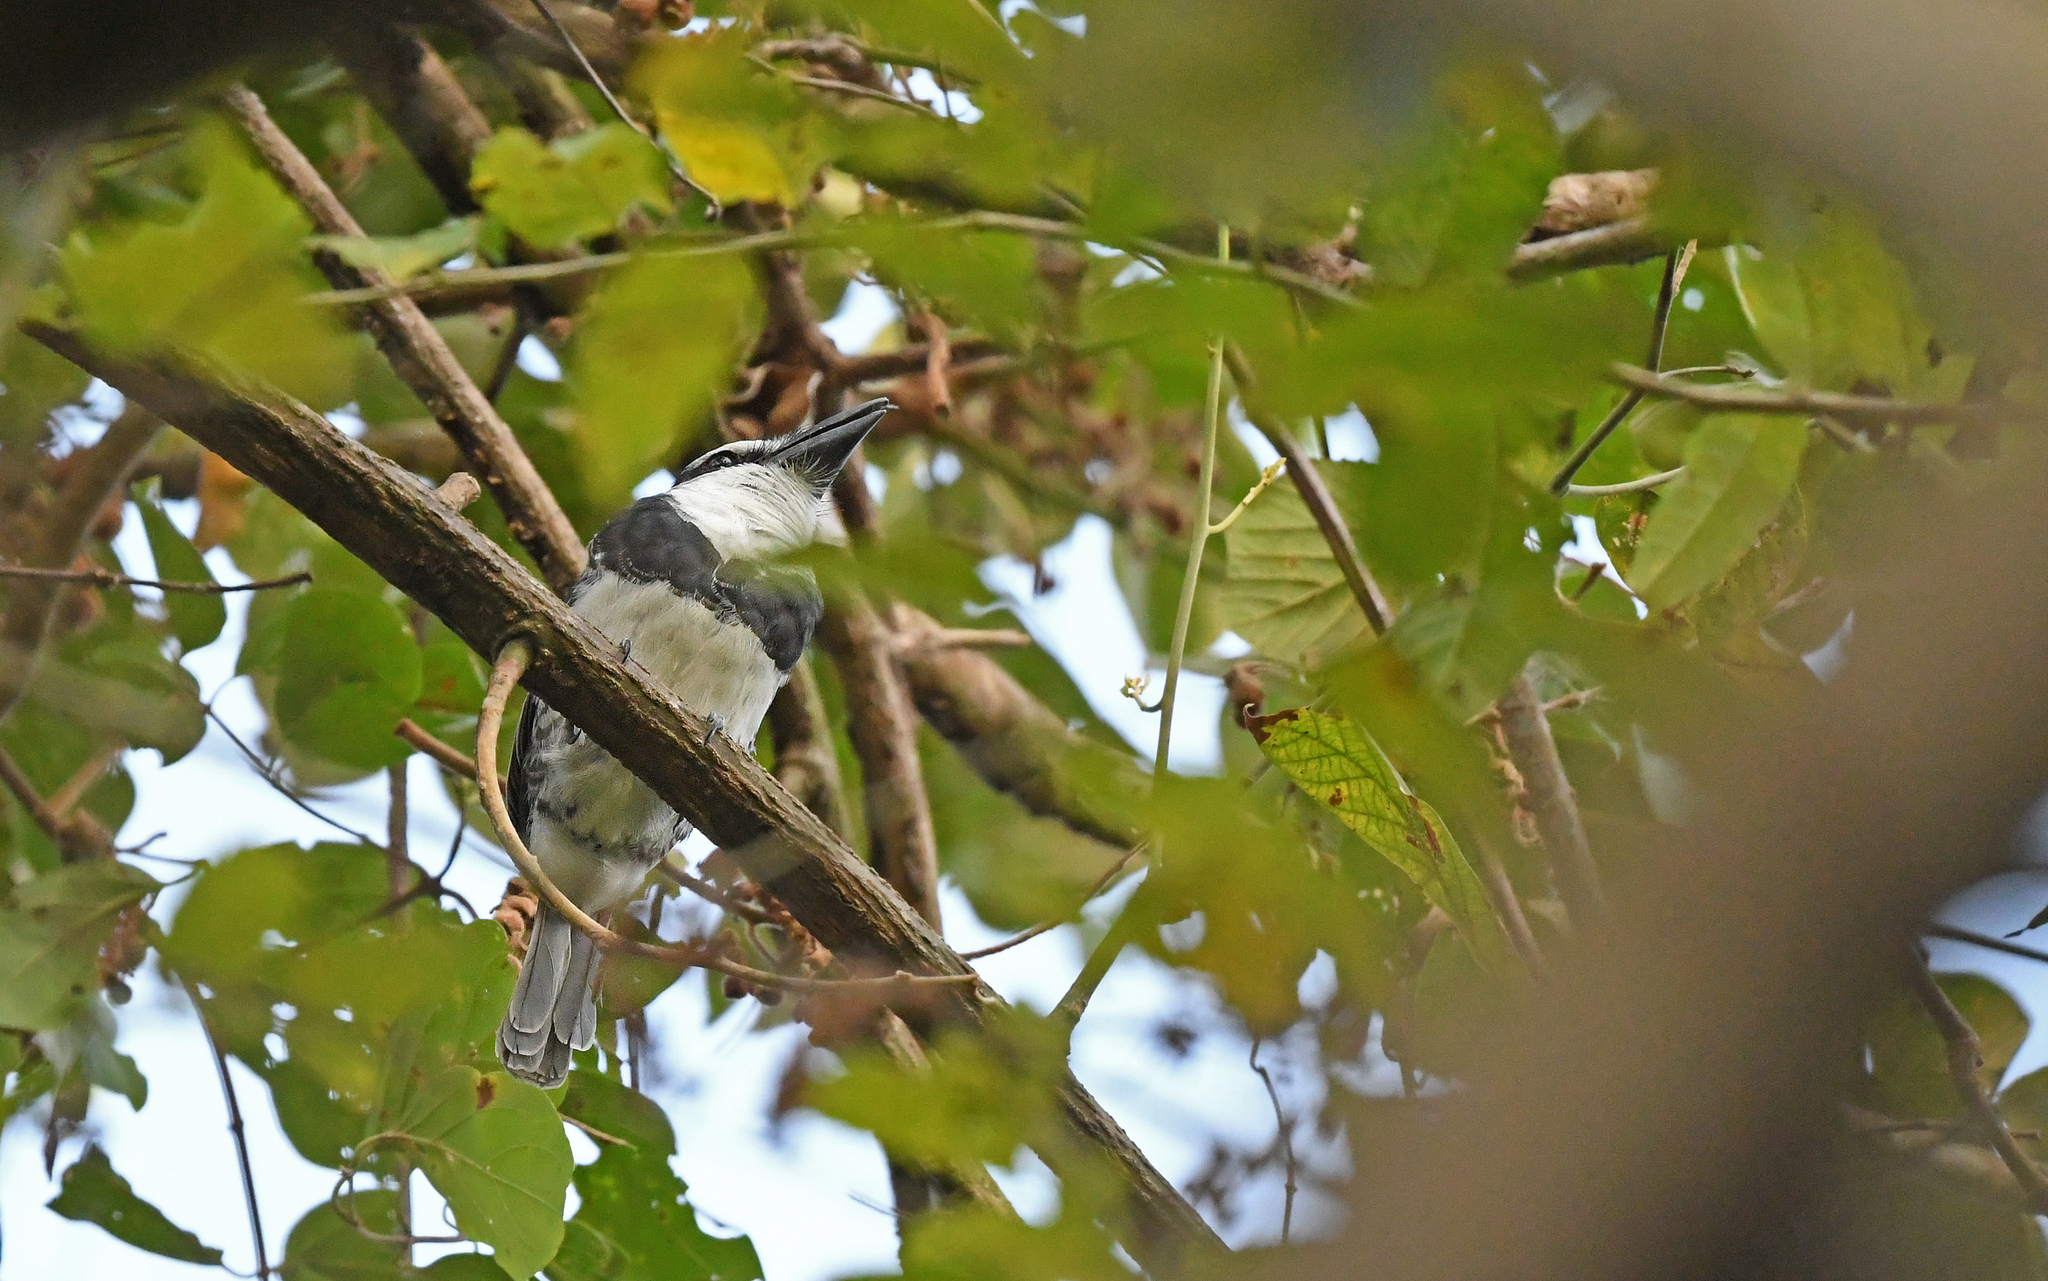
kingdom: Animalia
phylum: Chordata
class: Aves
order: Piciformes
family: Bucconidae
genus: Notharchus
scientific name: Notharchus hyperrhynchus
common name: White-necked puffbird
